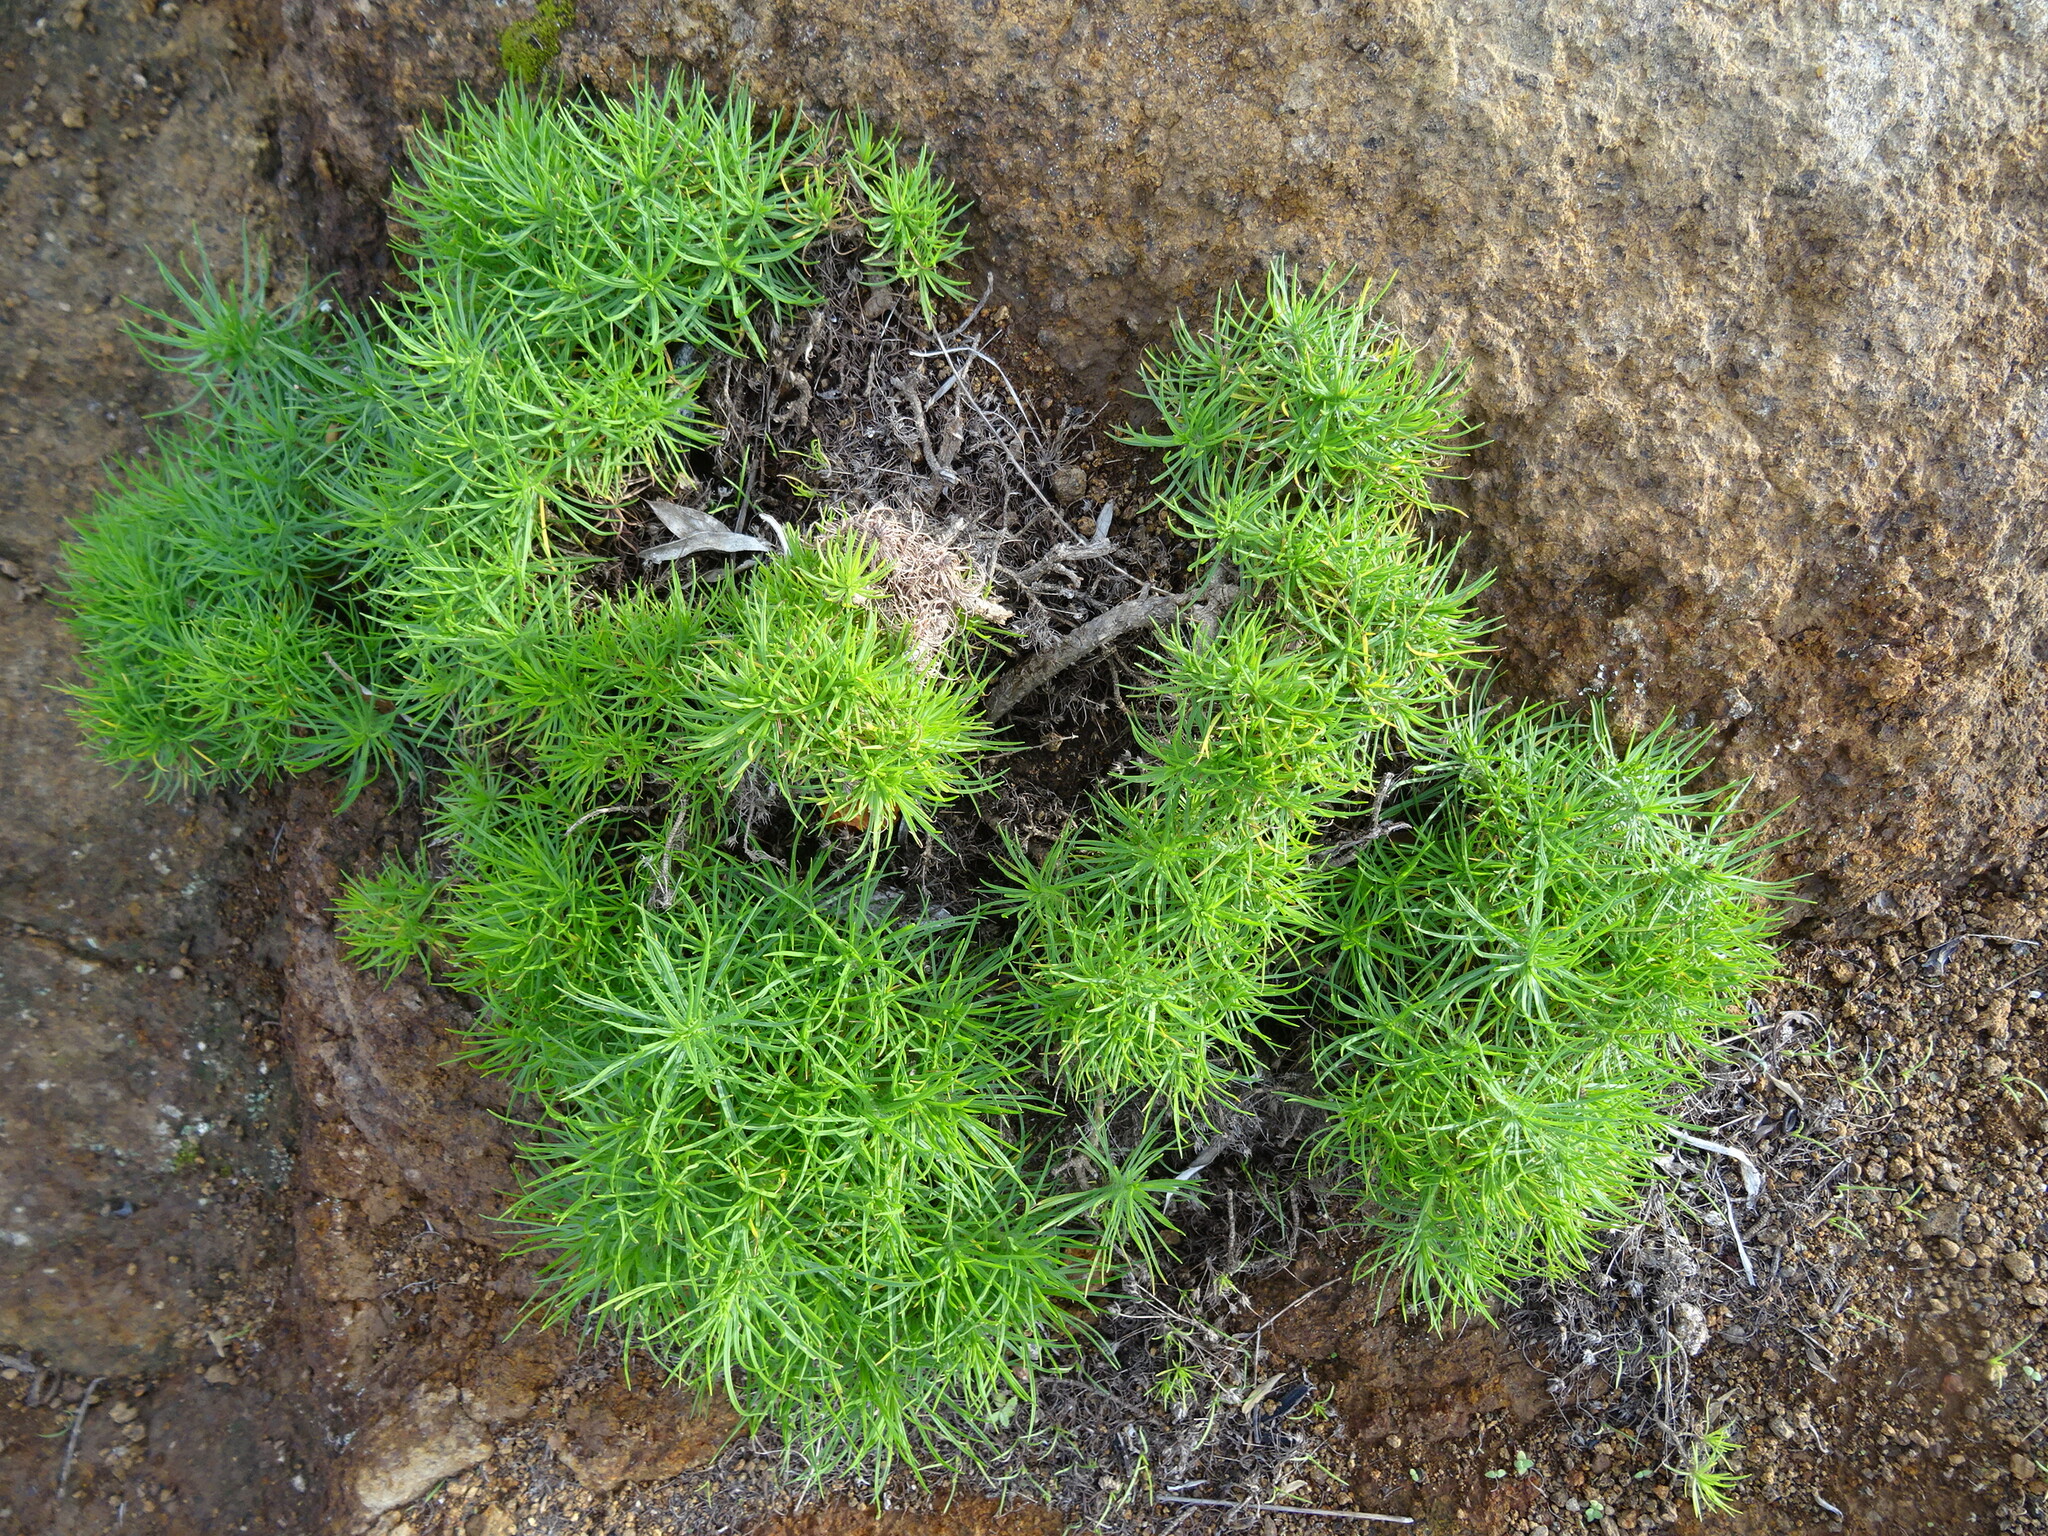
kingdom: Plantae
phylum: Tracheophyta
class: Magnoliopsida
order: Lamiales
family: Plantaginaceae
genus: Plantago
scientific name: Plantago arborescens
